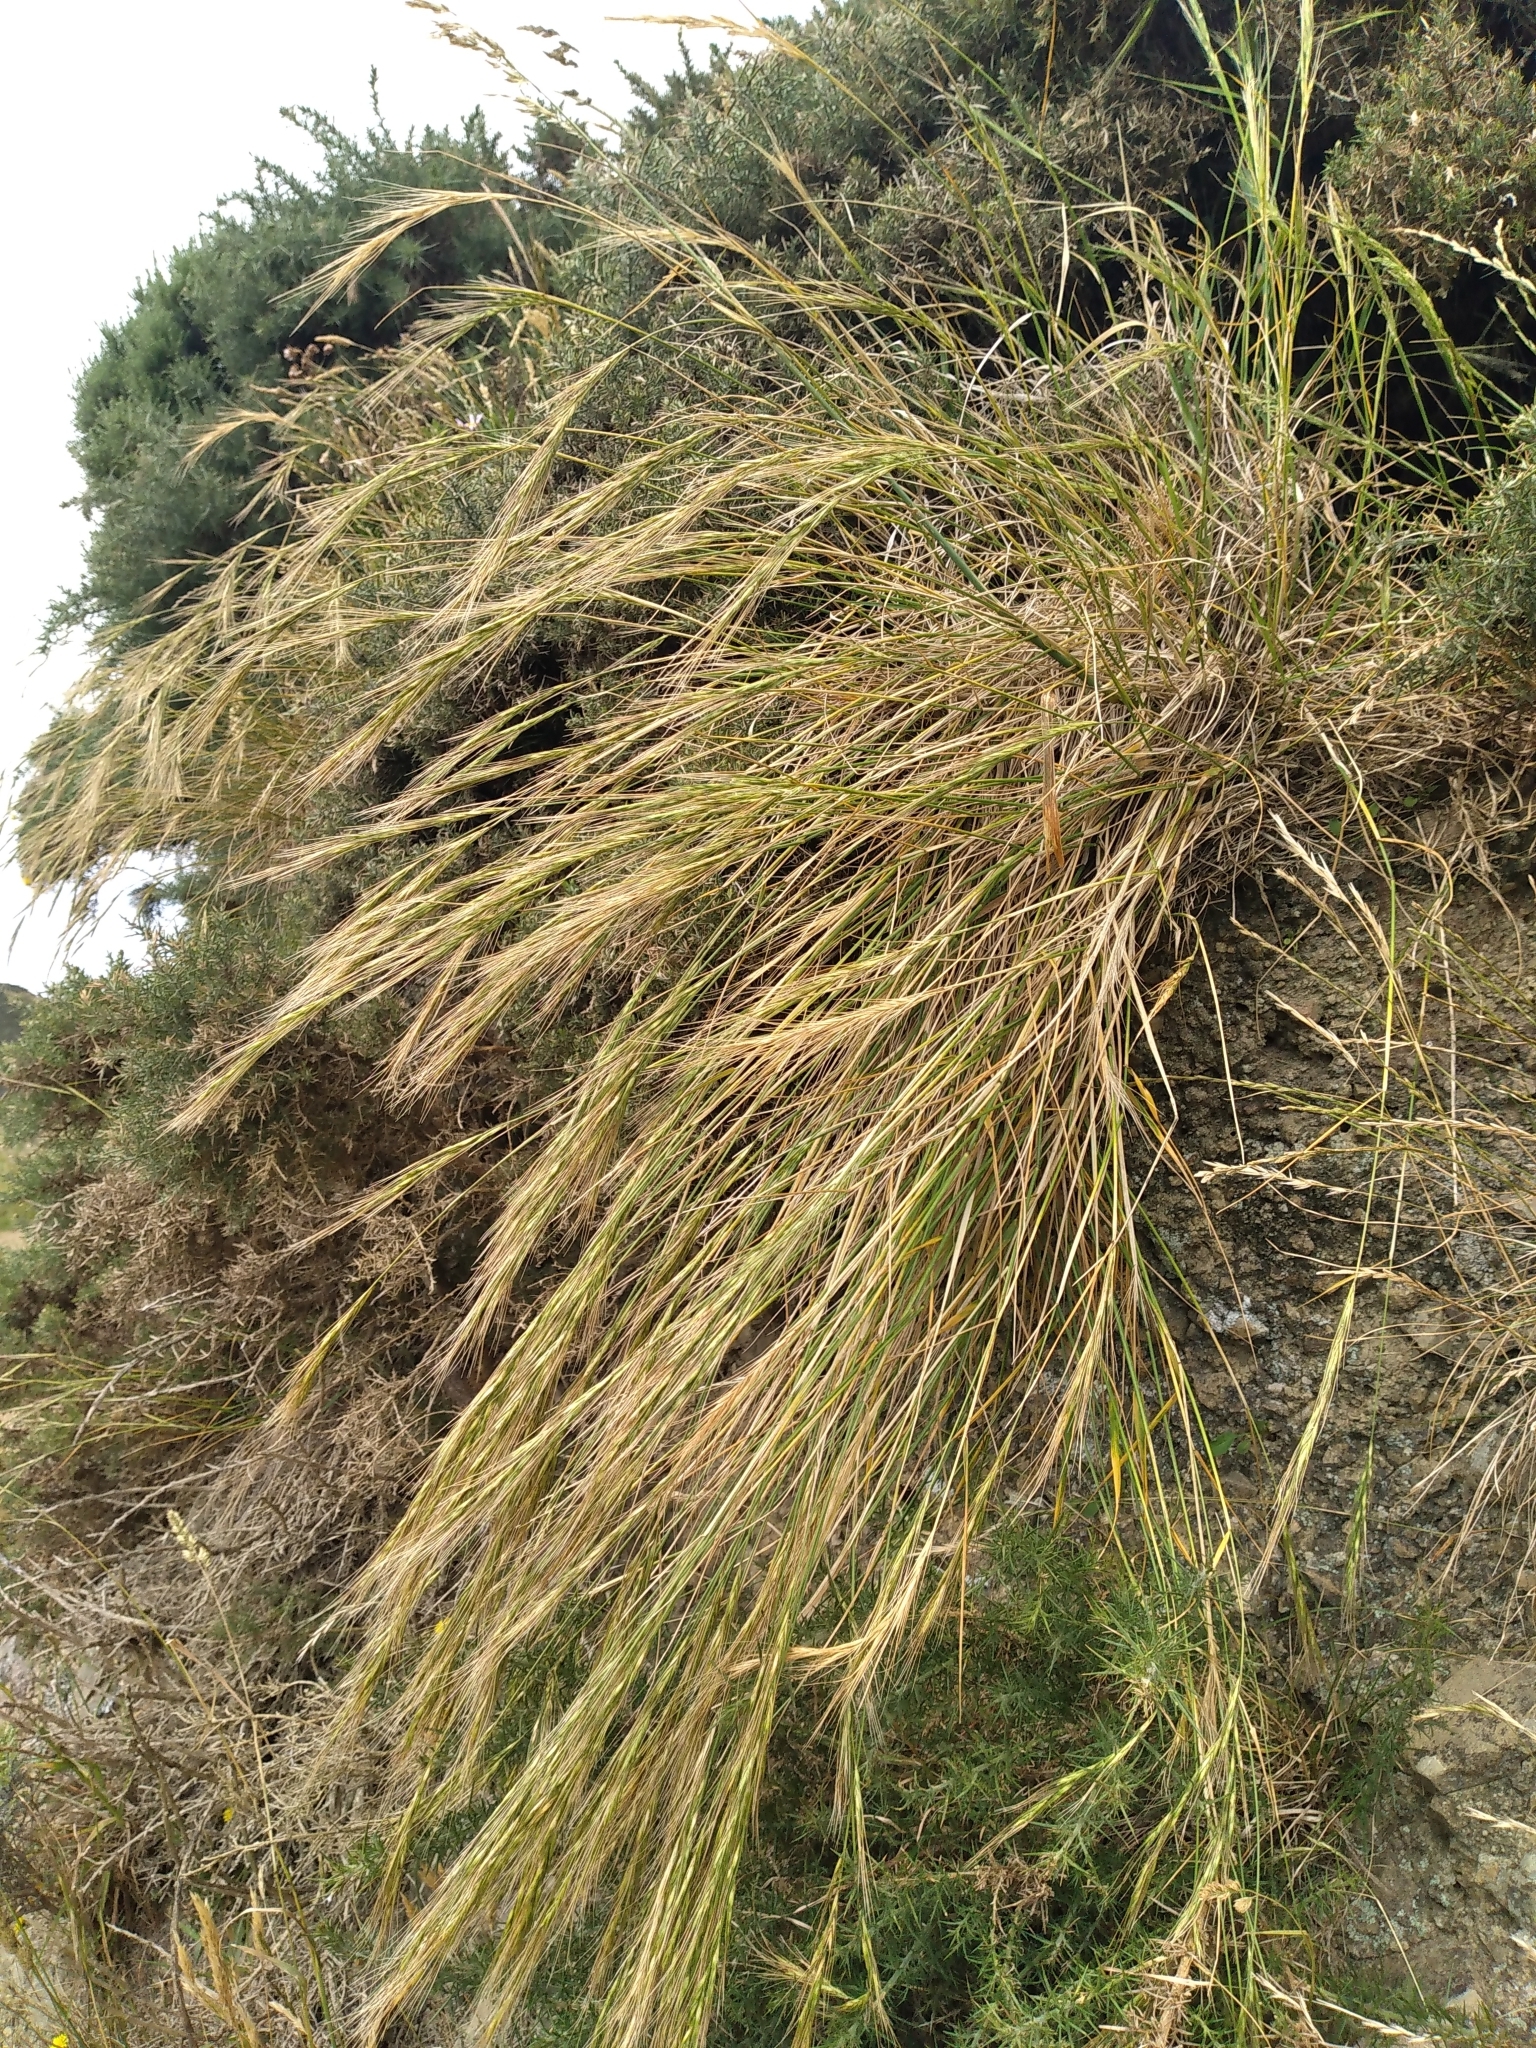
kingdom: Plantae
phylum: Tracheophyta
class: Liliopsida
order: Poales
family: Poaceae
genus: Anthosachne
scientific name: Anthosachne solandri
